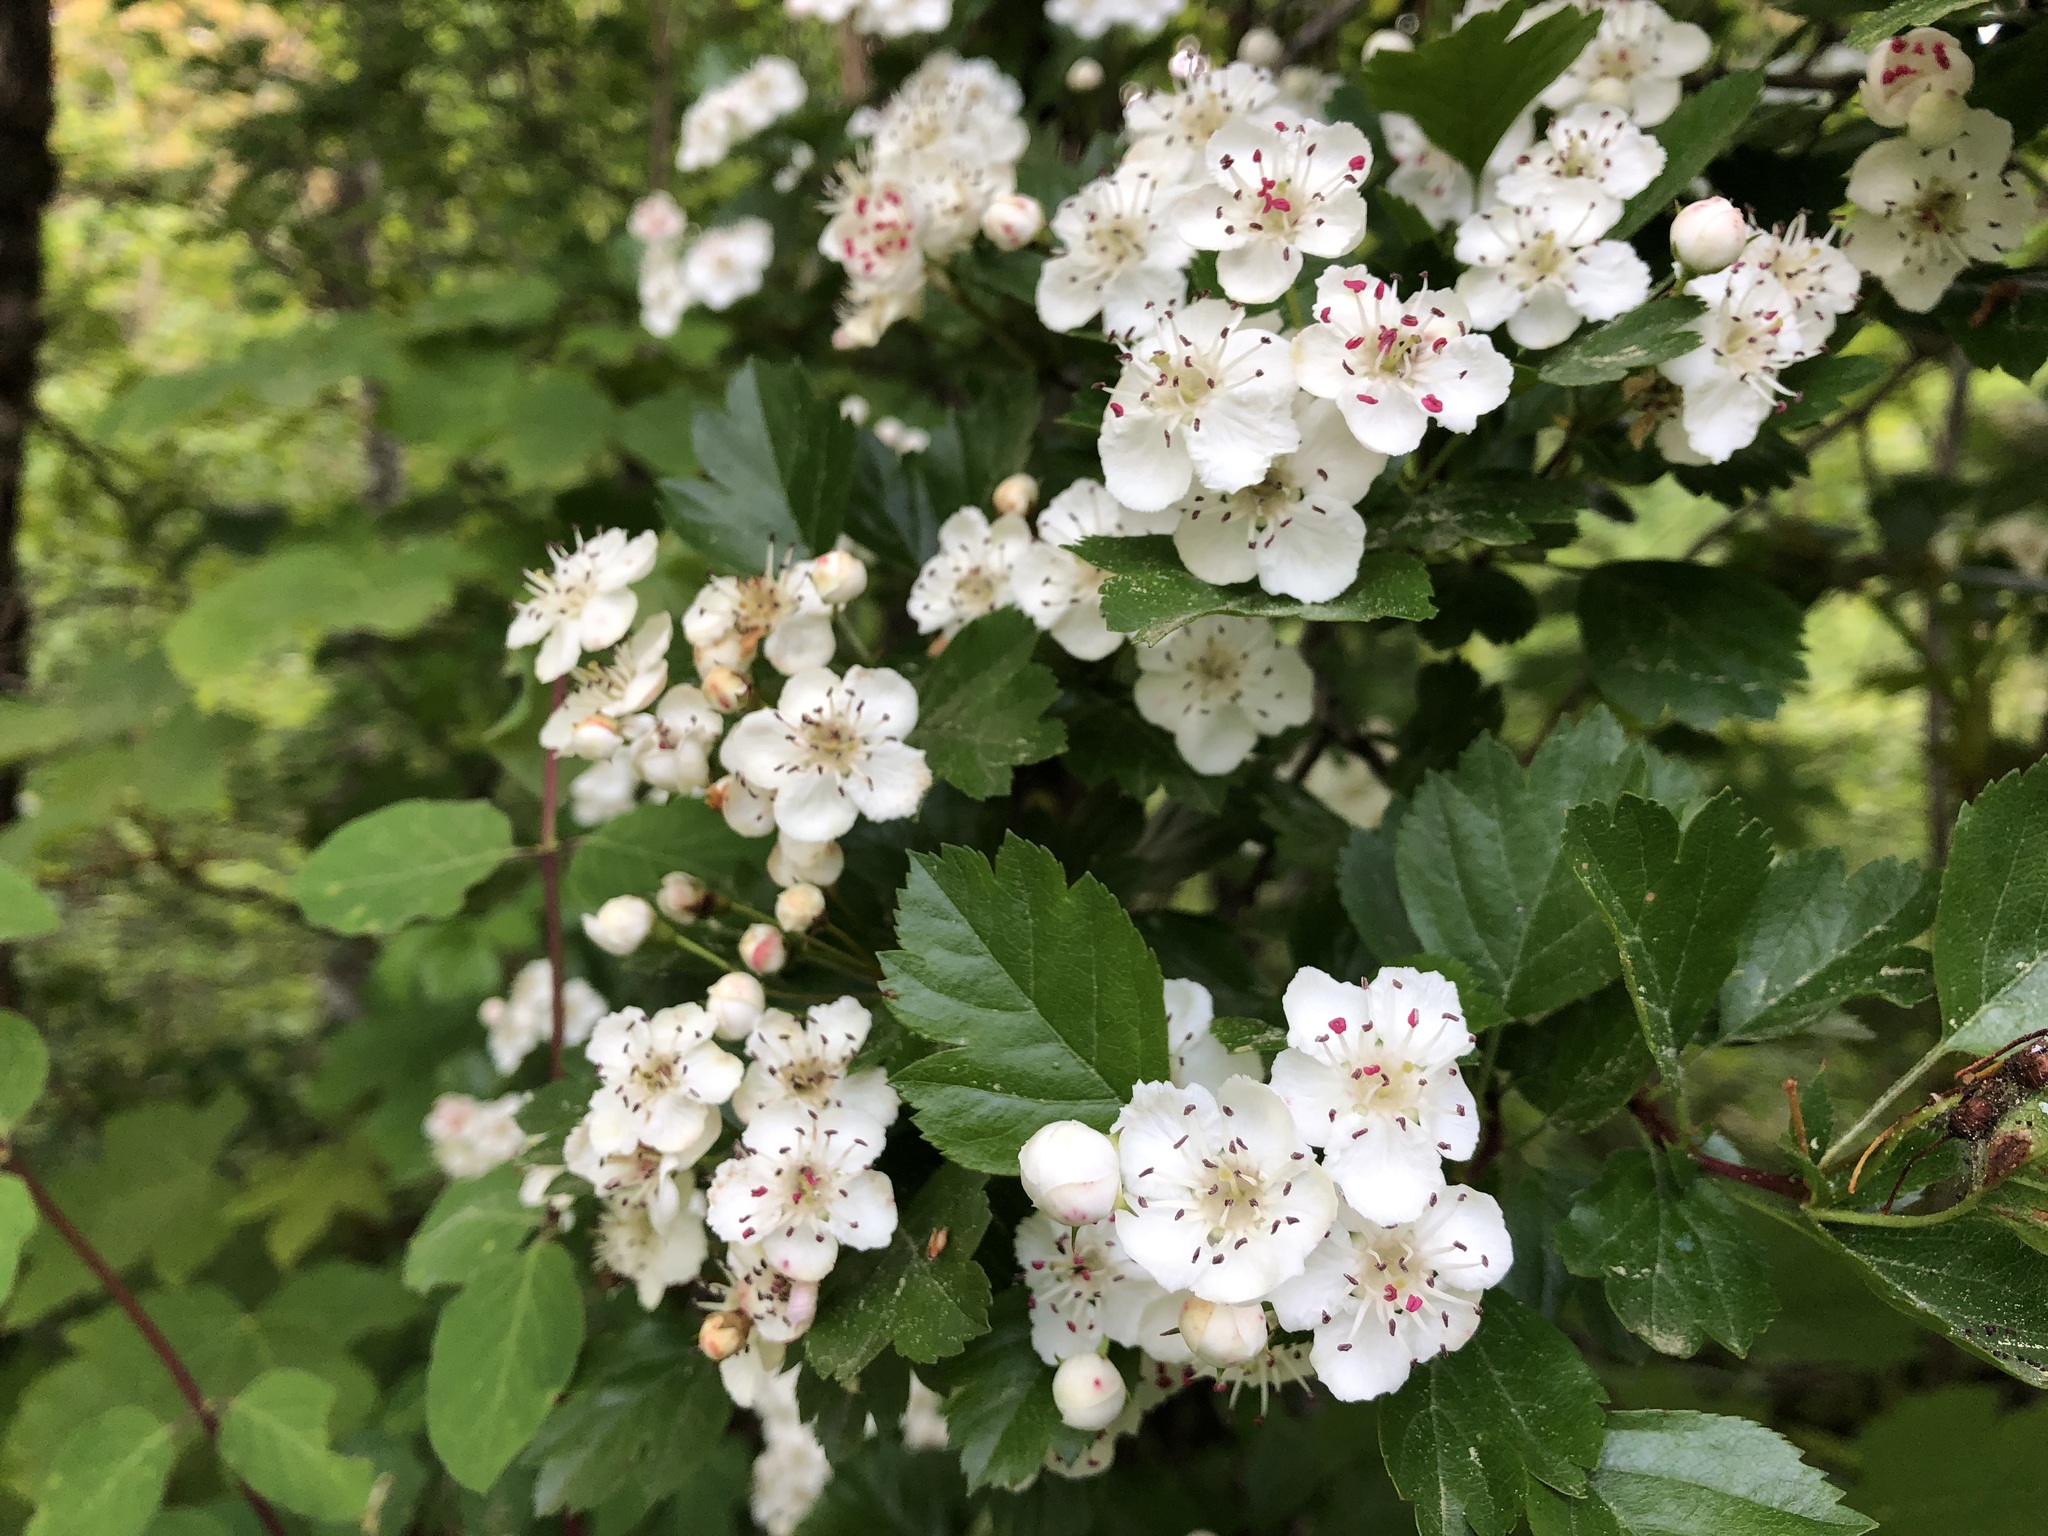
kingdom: Plantae
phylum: Tracheophyta
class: Magnoliopsida
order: Rosales
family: Rosaceae
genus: Crataegus
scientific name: Crataegus laevigata
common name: Midland hawthorn
